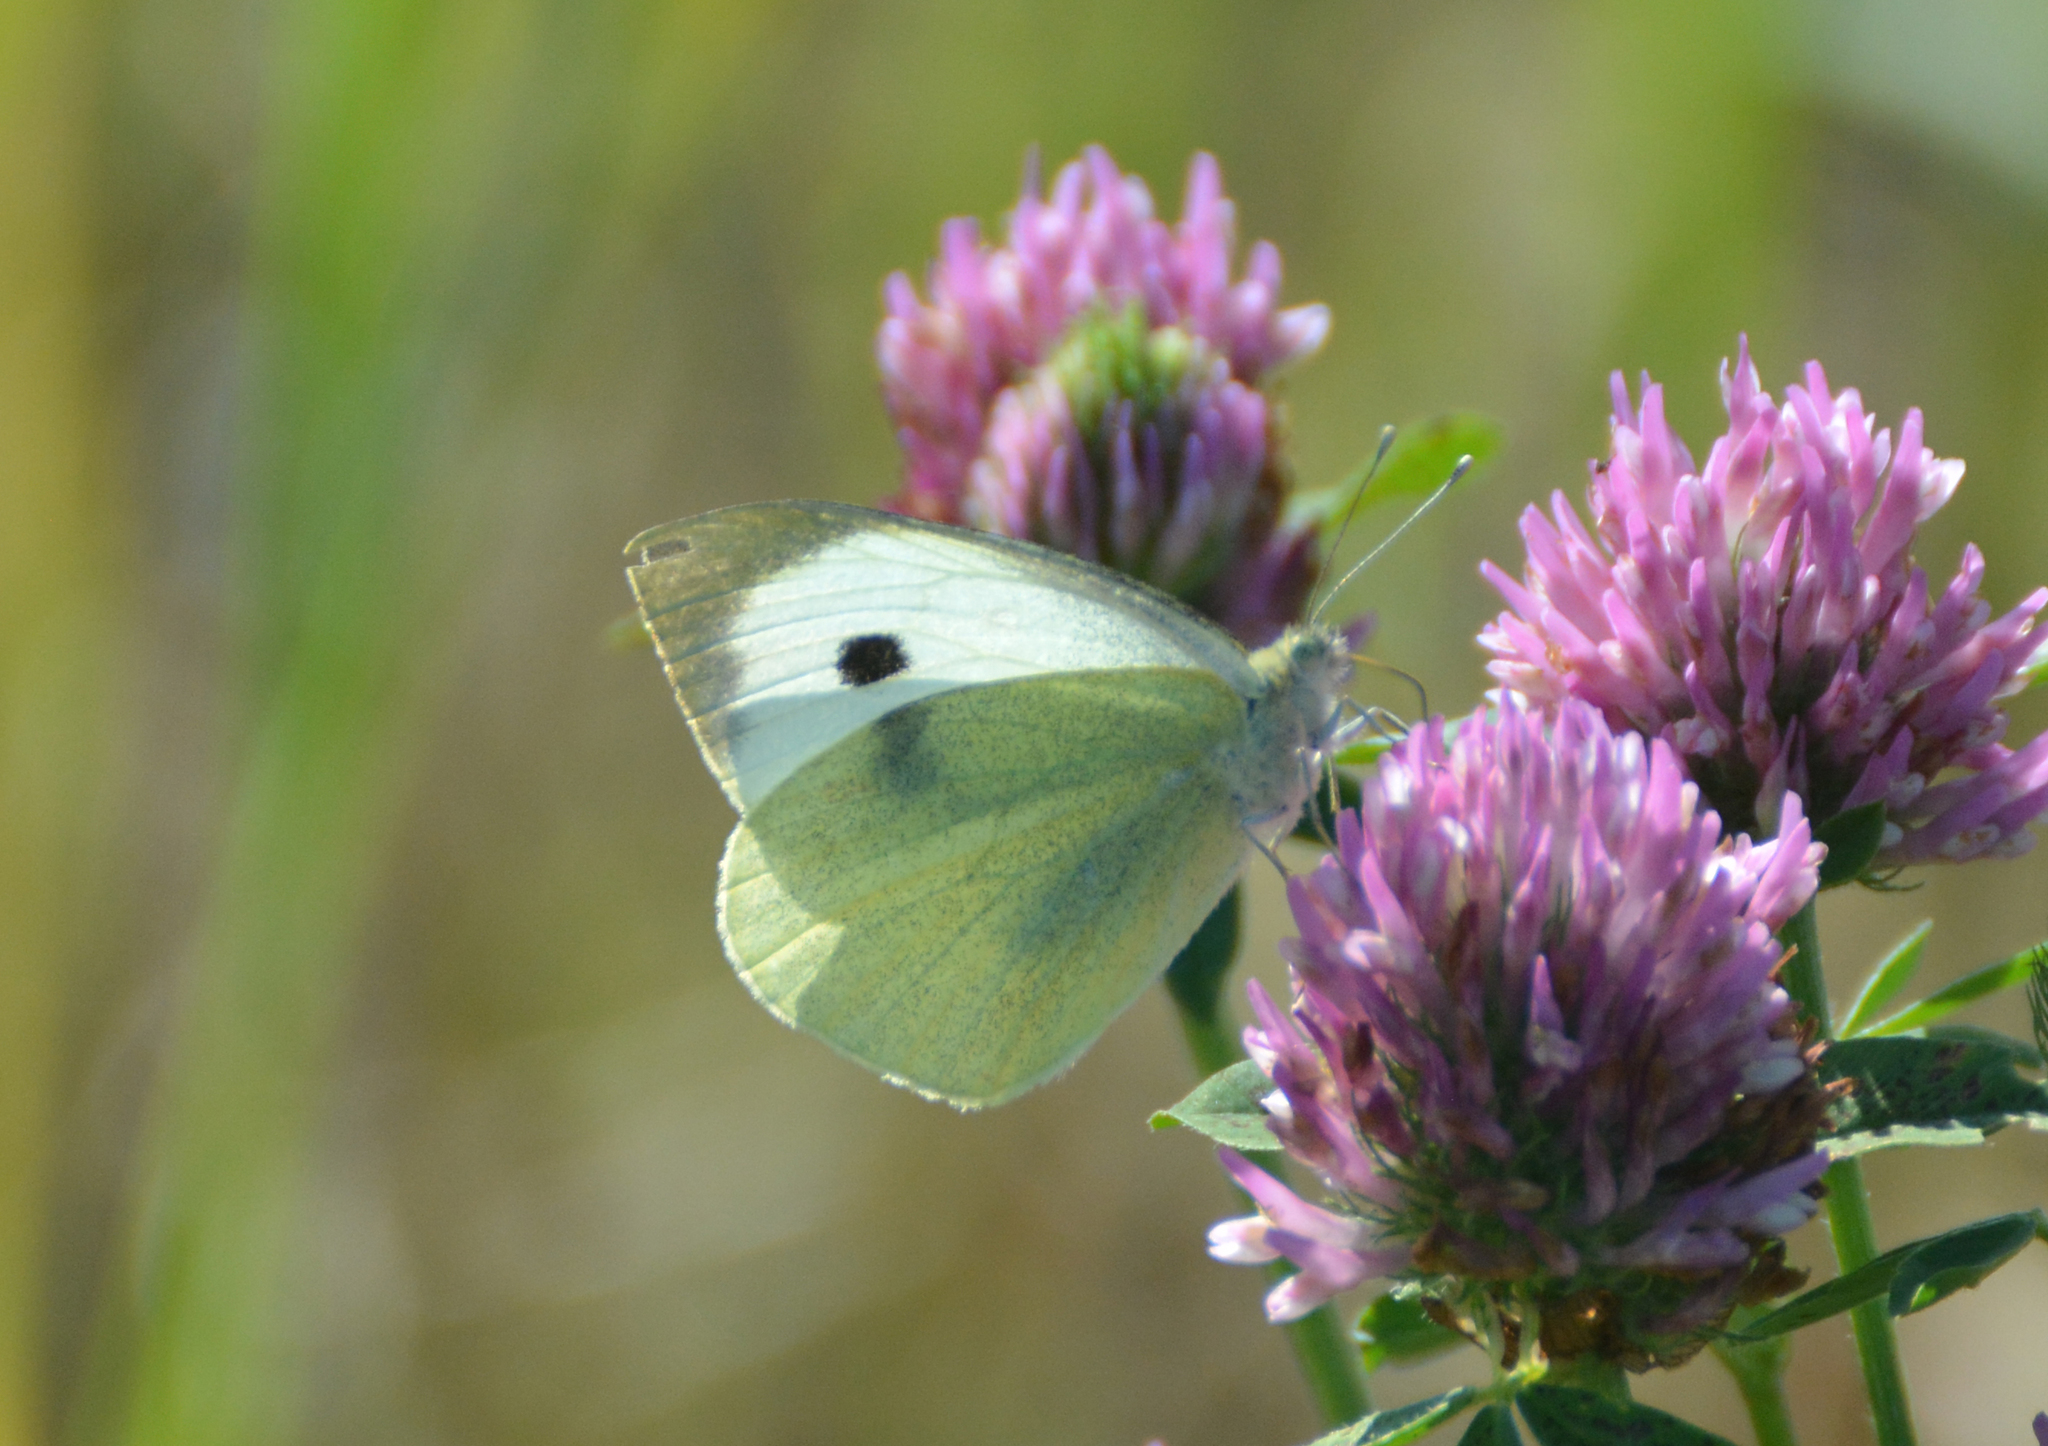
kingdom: Animalia
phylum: Arthropoda
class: Insecta
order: Lepidoptera
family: Pieridae
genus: Pieris
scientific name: Pieris brassicae
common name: Large white
